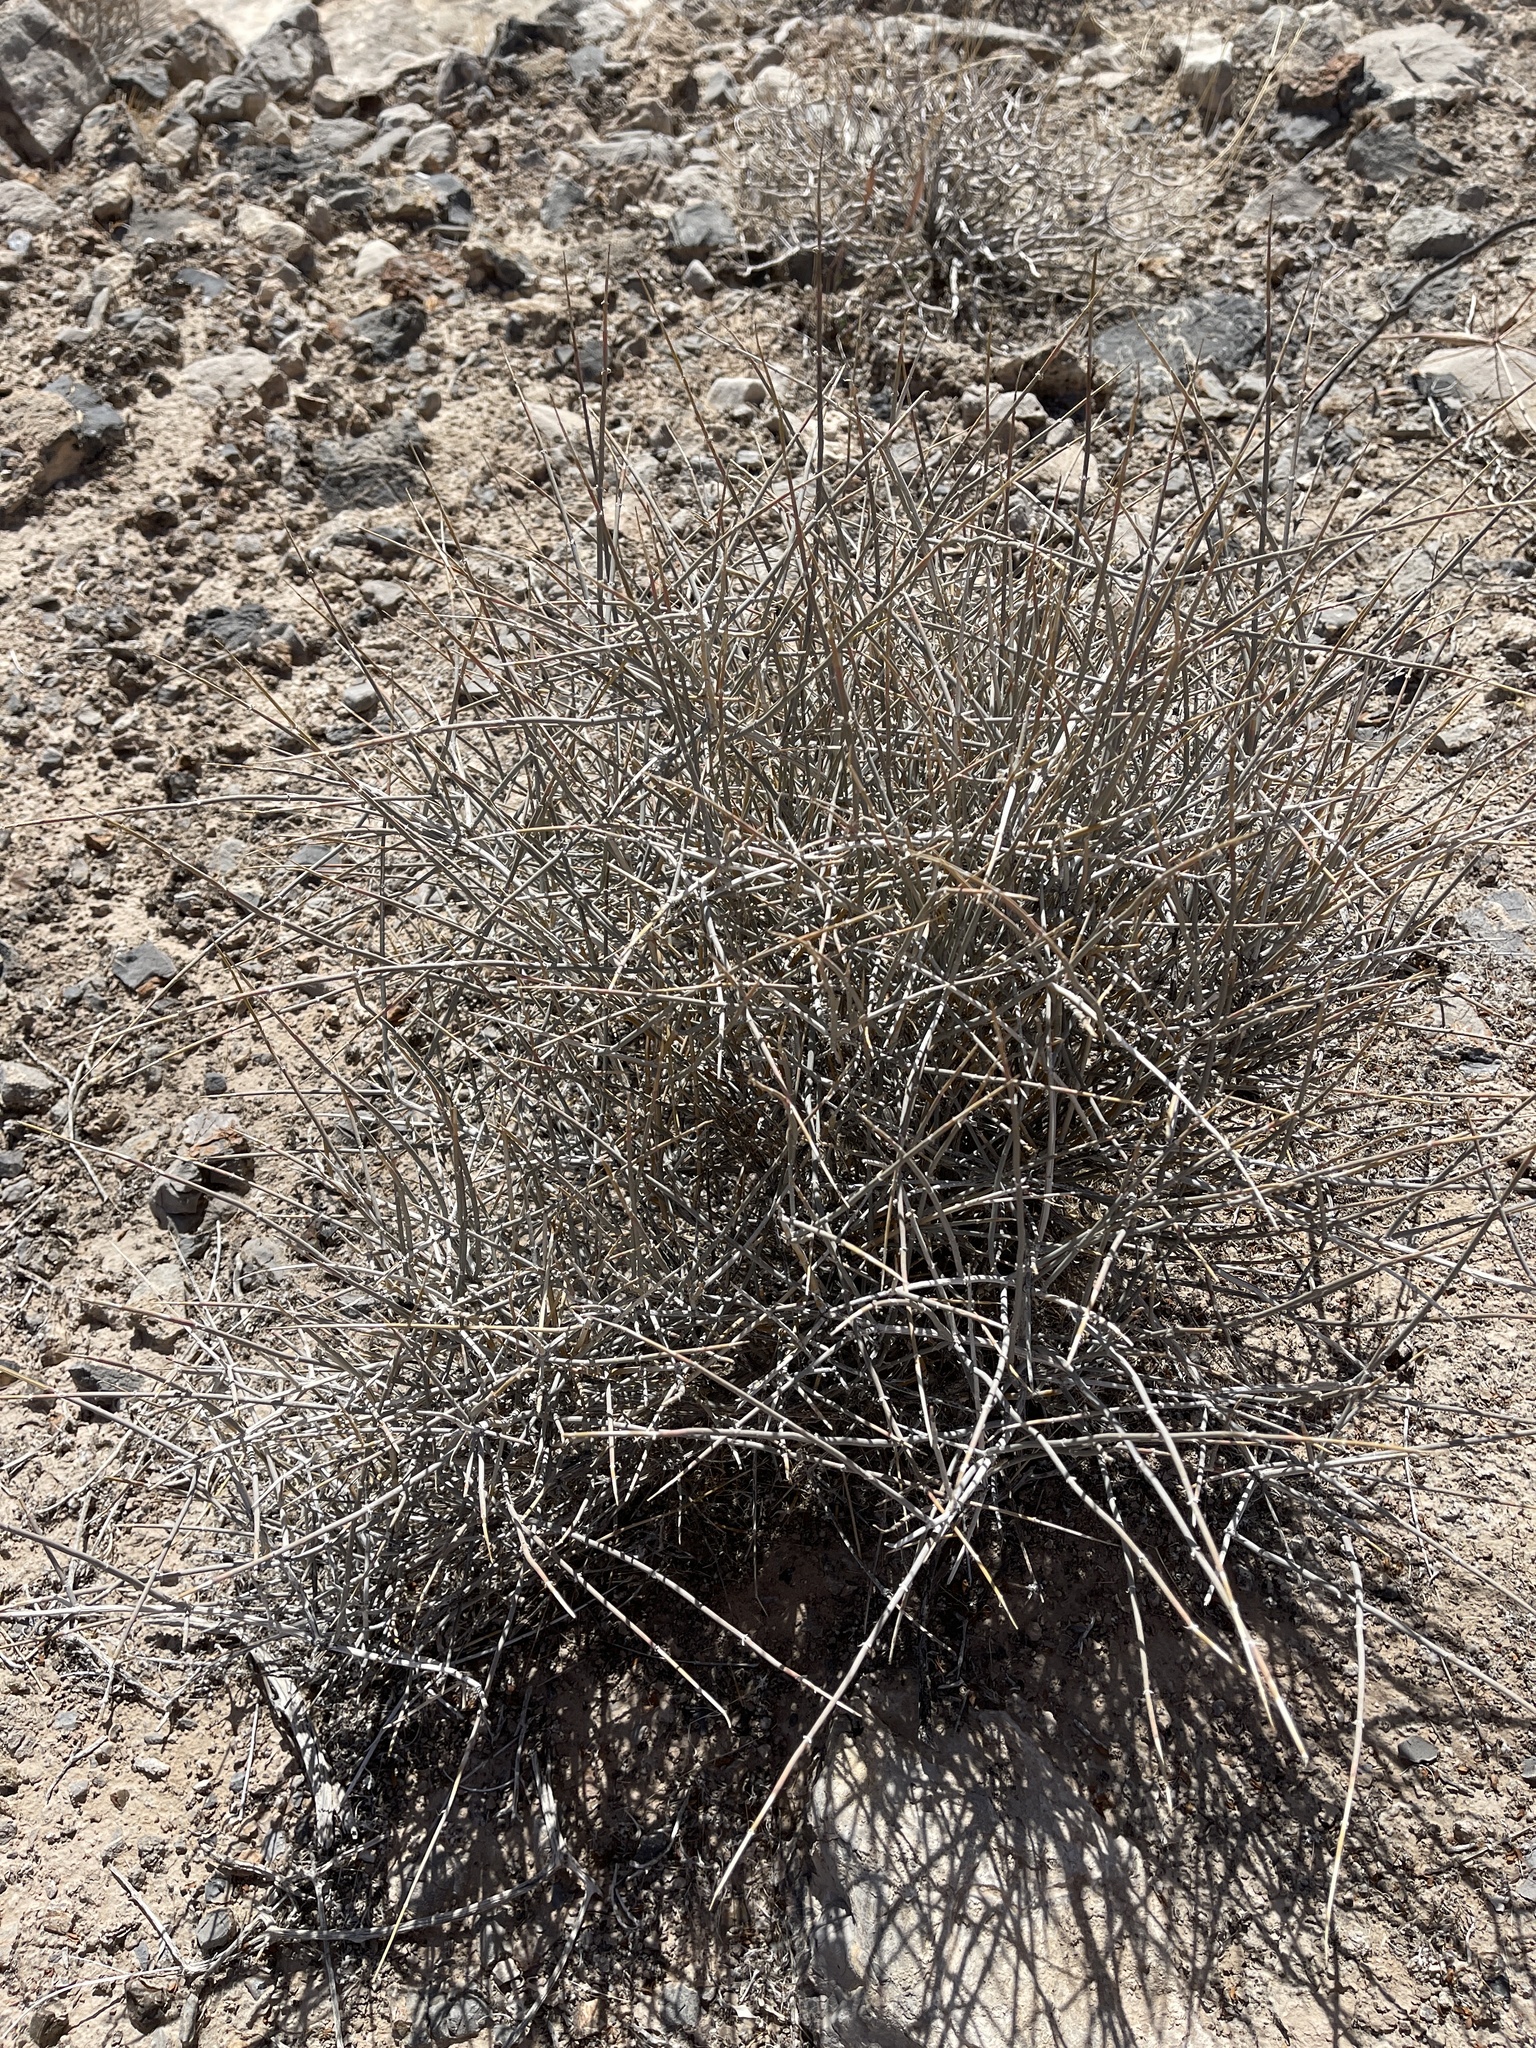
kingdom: Plantae
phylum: Tracheophyta
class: Gnetopsida
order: Ephedrales
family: Ephedraceae
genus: Ephedra
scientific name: Ephedra nevadensis
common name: Gray ephedra
